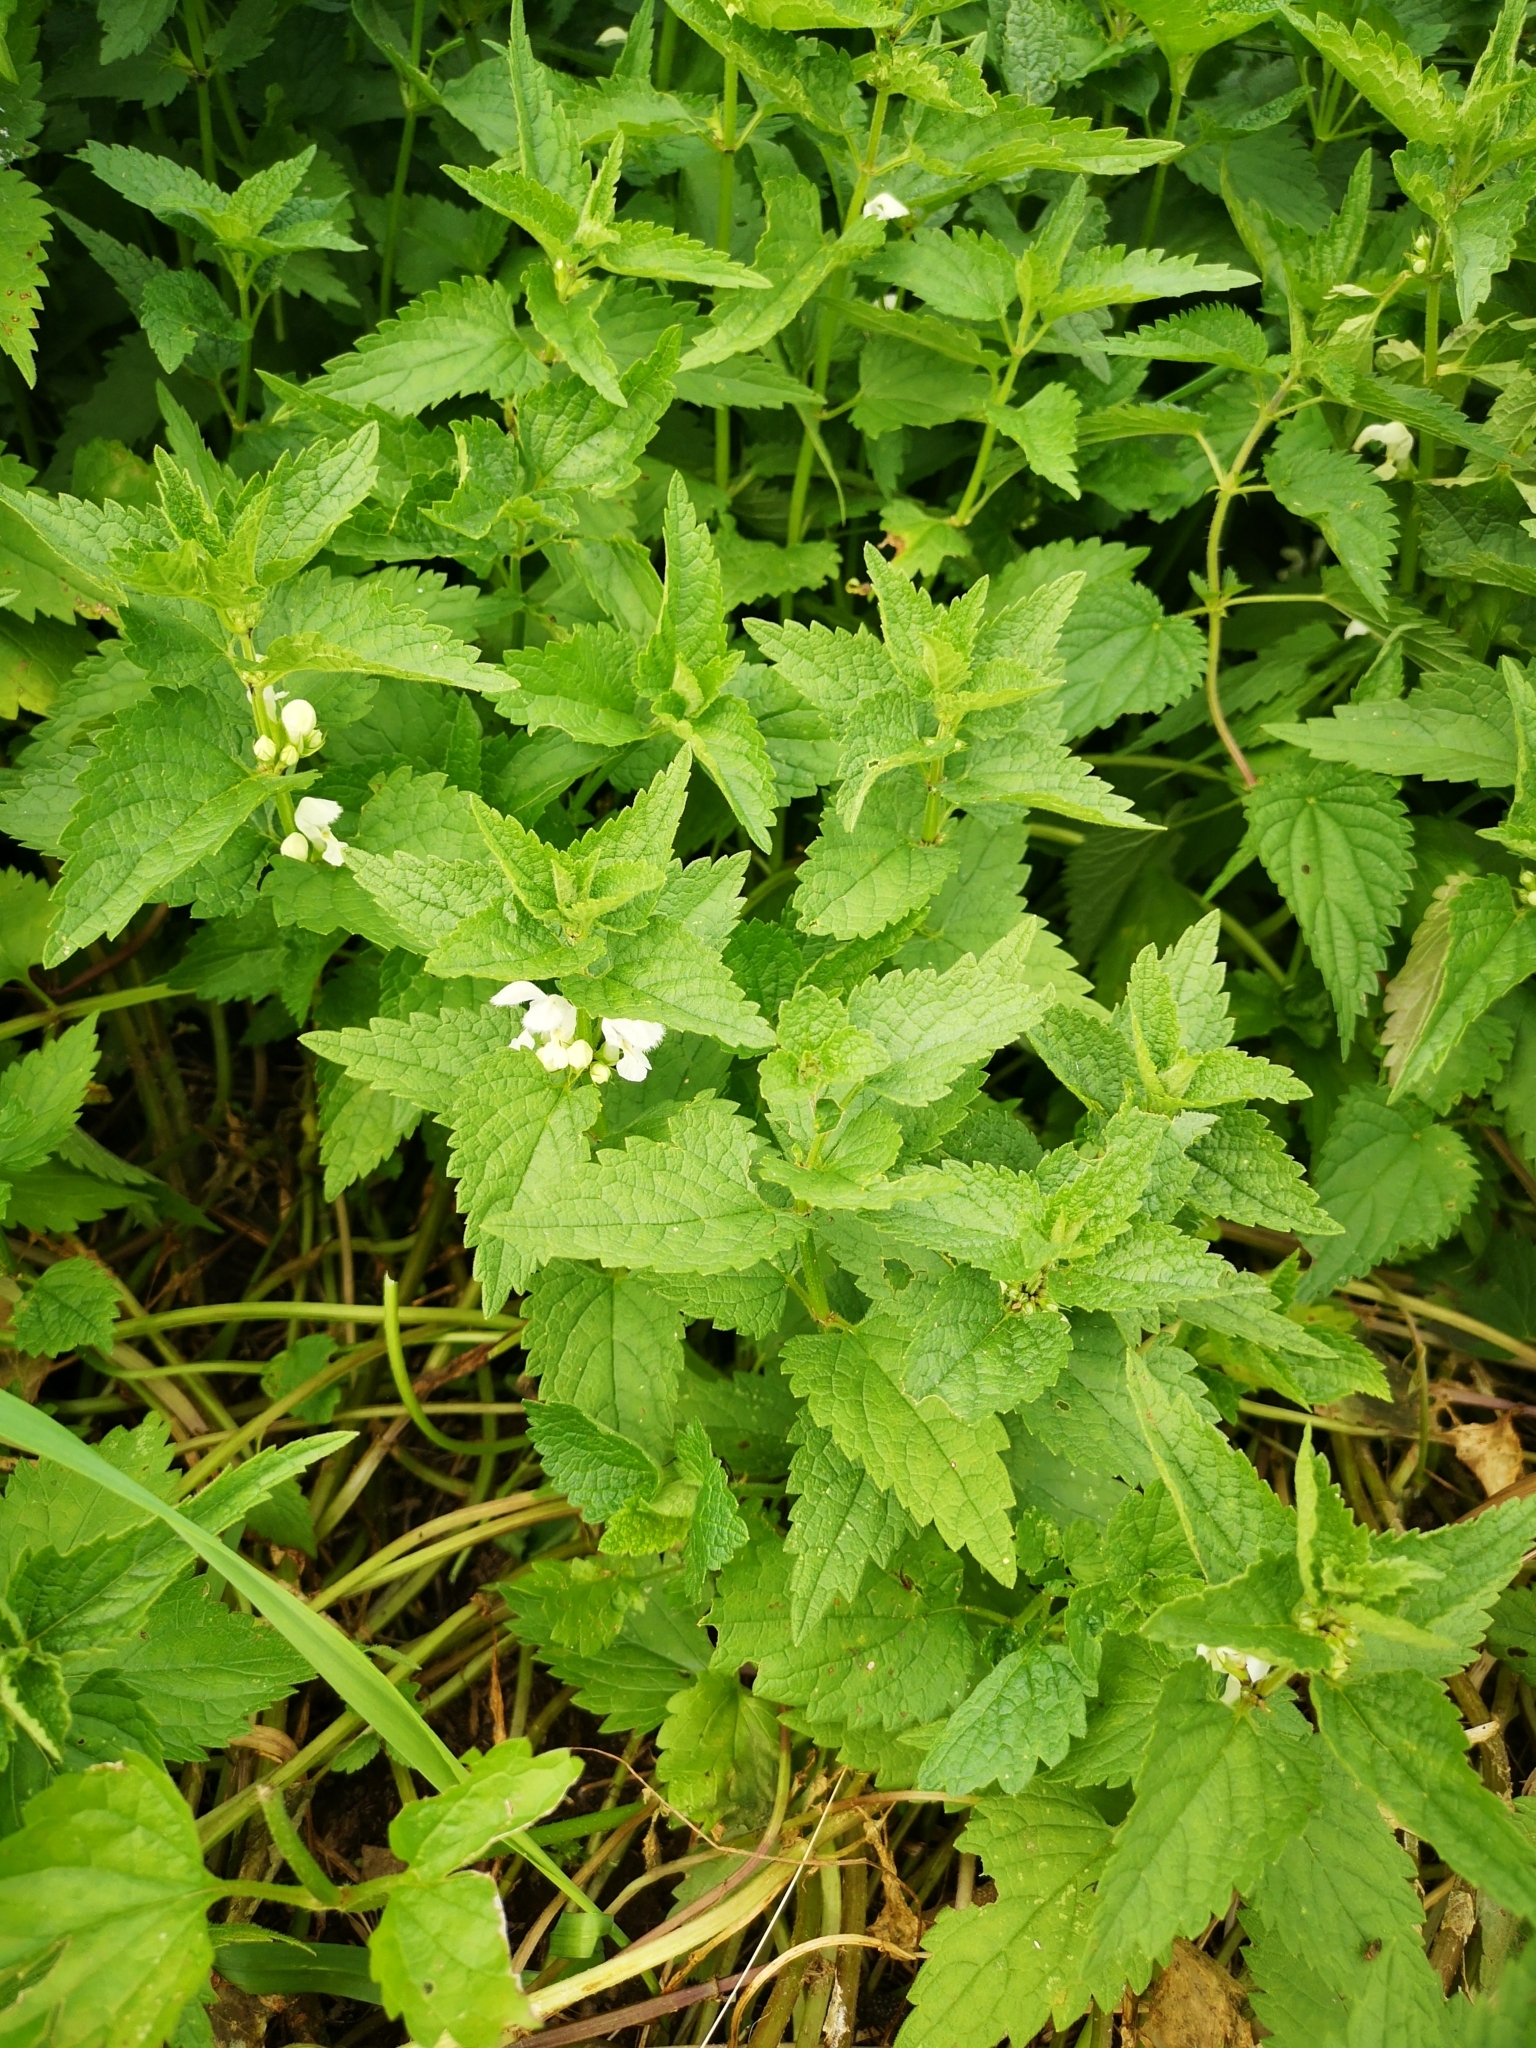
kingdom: Plantae
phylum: Tracheophyta
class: Magnoliopsida
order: Lamiales
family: Lamiaceae
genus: Lamium
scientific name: Lamium album
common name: White dead-nettle
